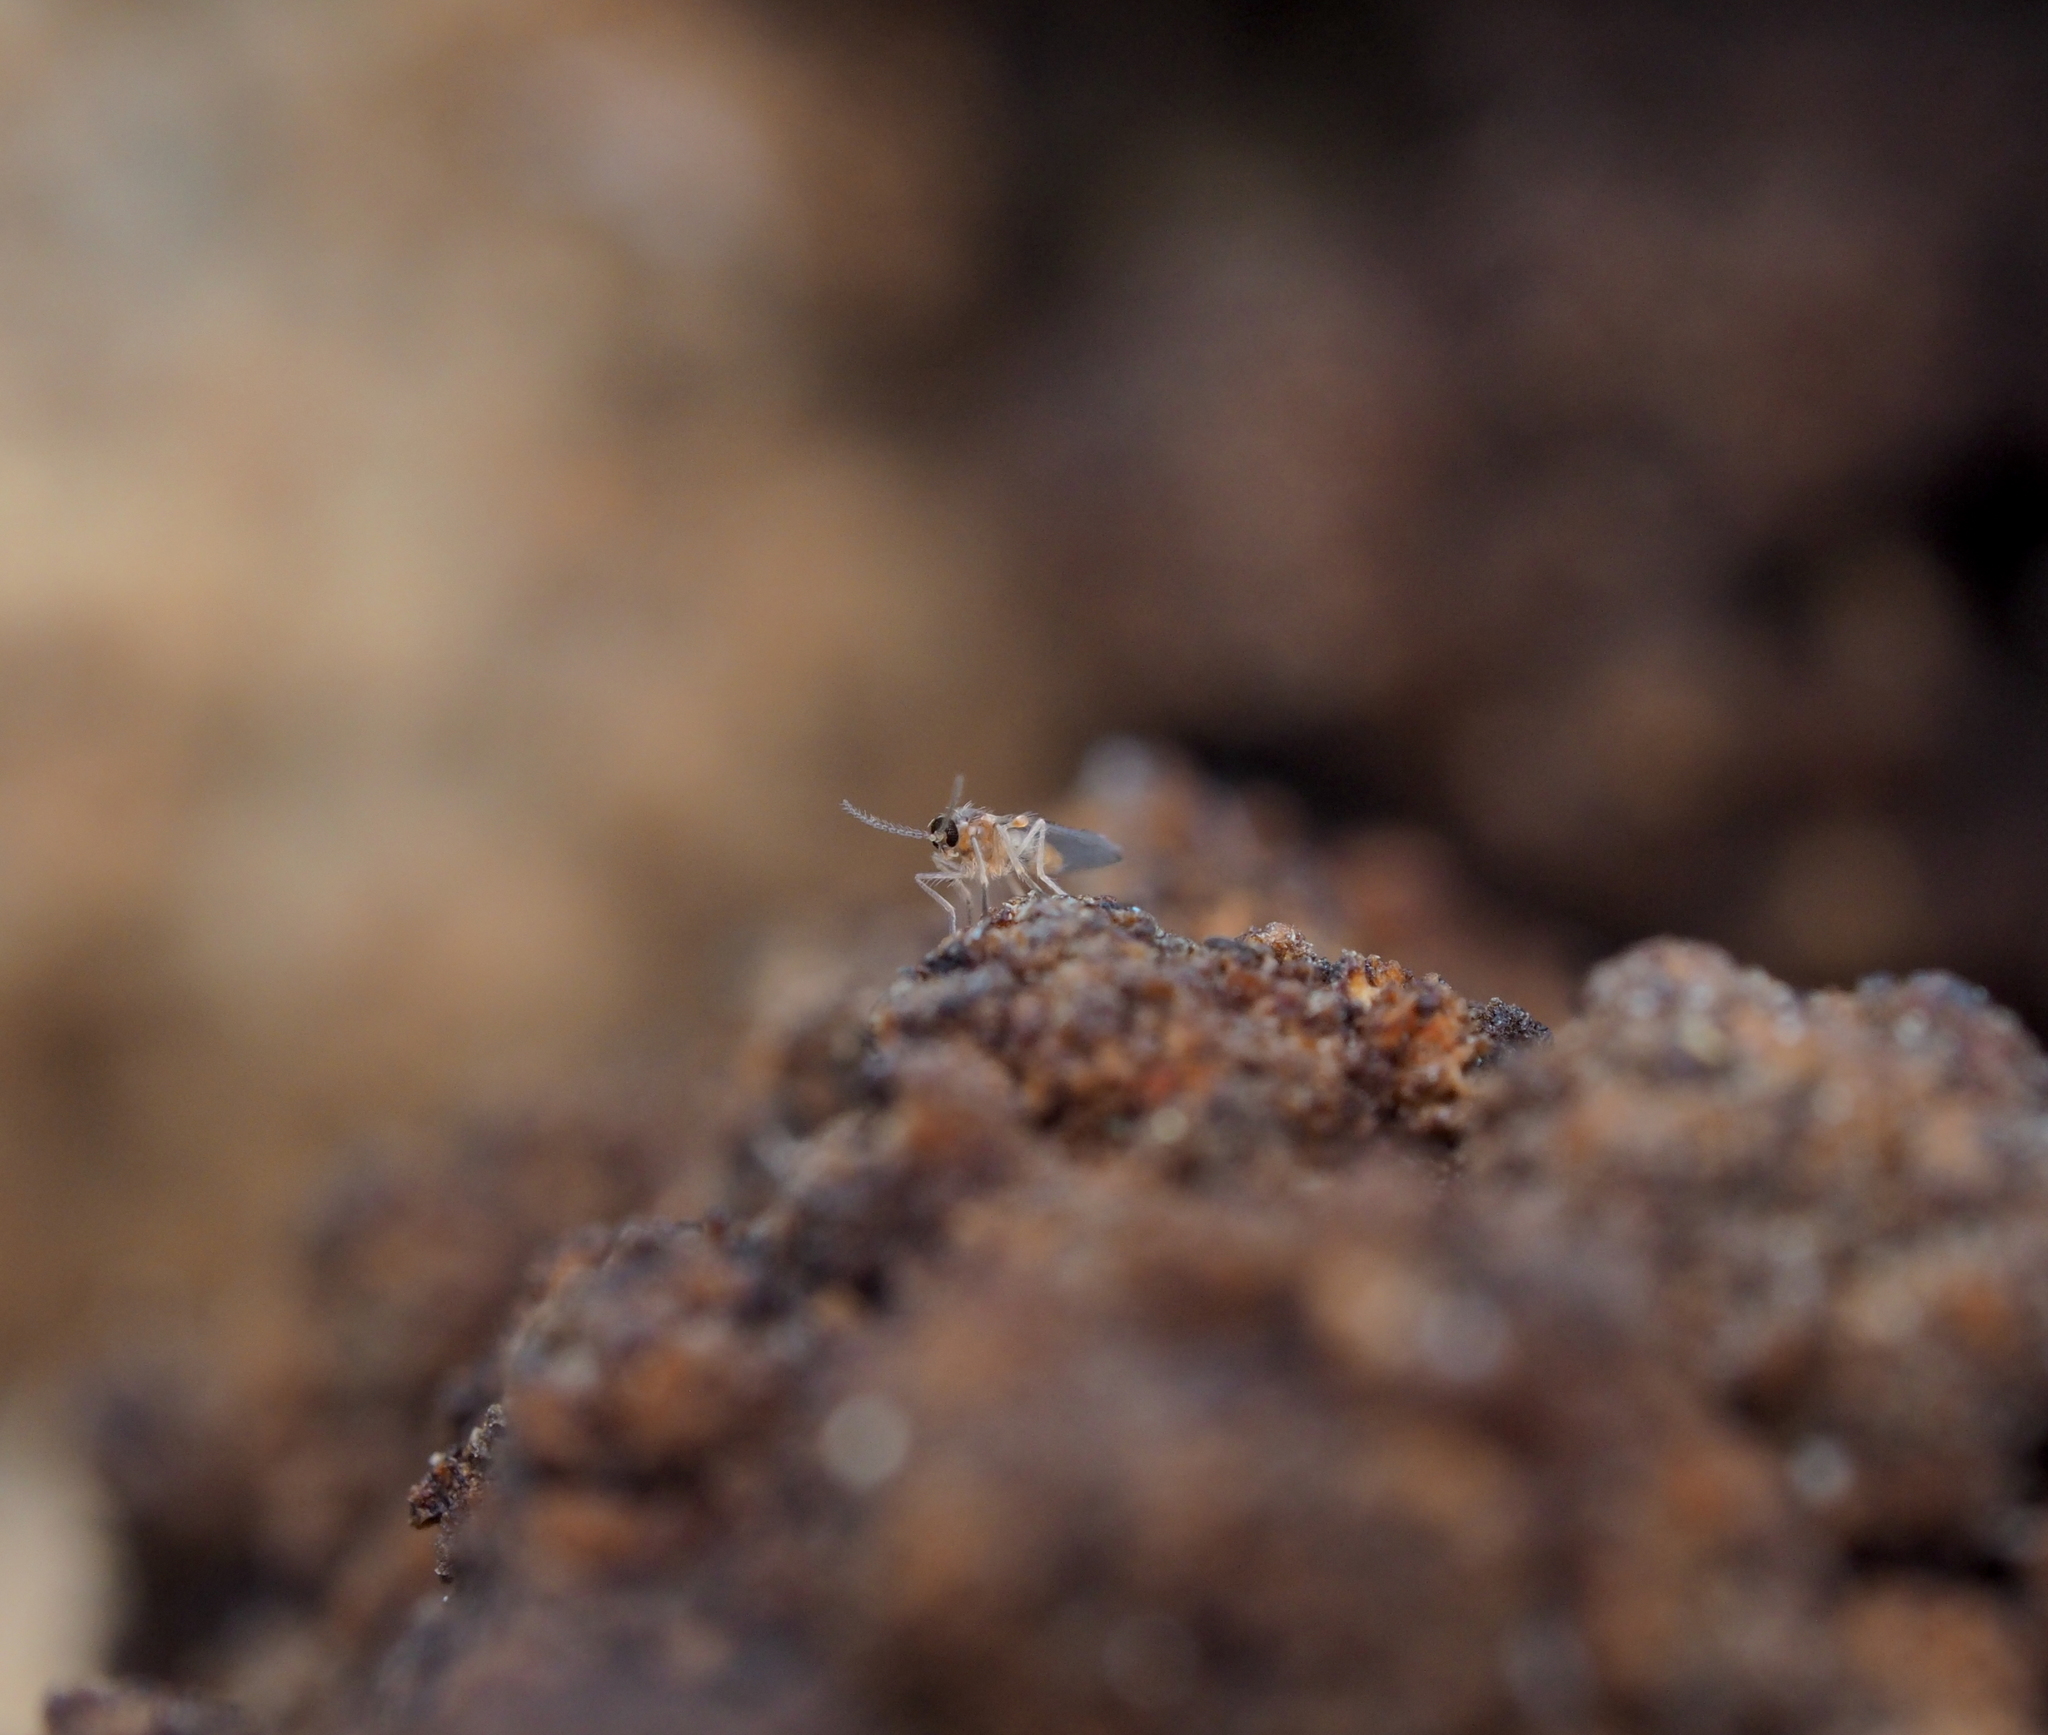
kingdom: Animalia
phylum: Arthropoda
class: Insecta
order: Diptera
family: Cecidomyiidae
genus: Arthrocnodax
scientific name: Arthrocnodax fraxinellus
